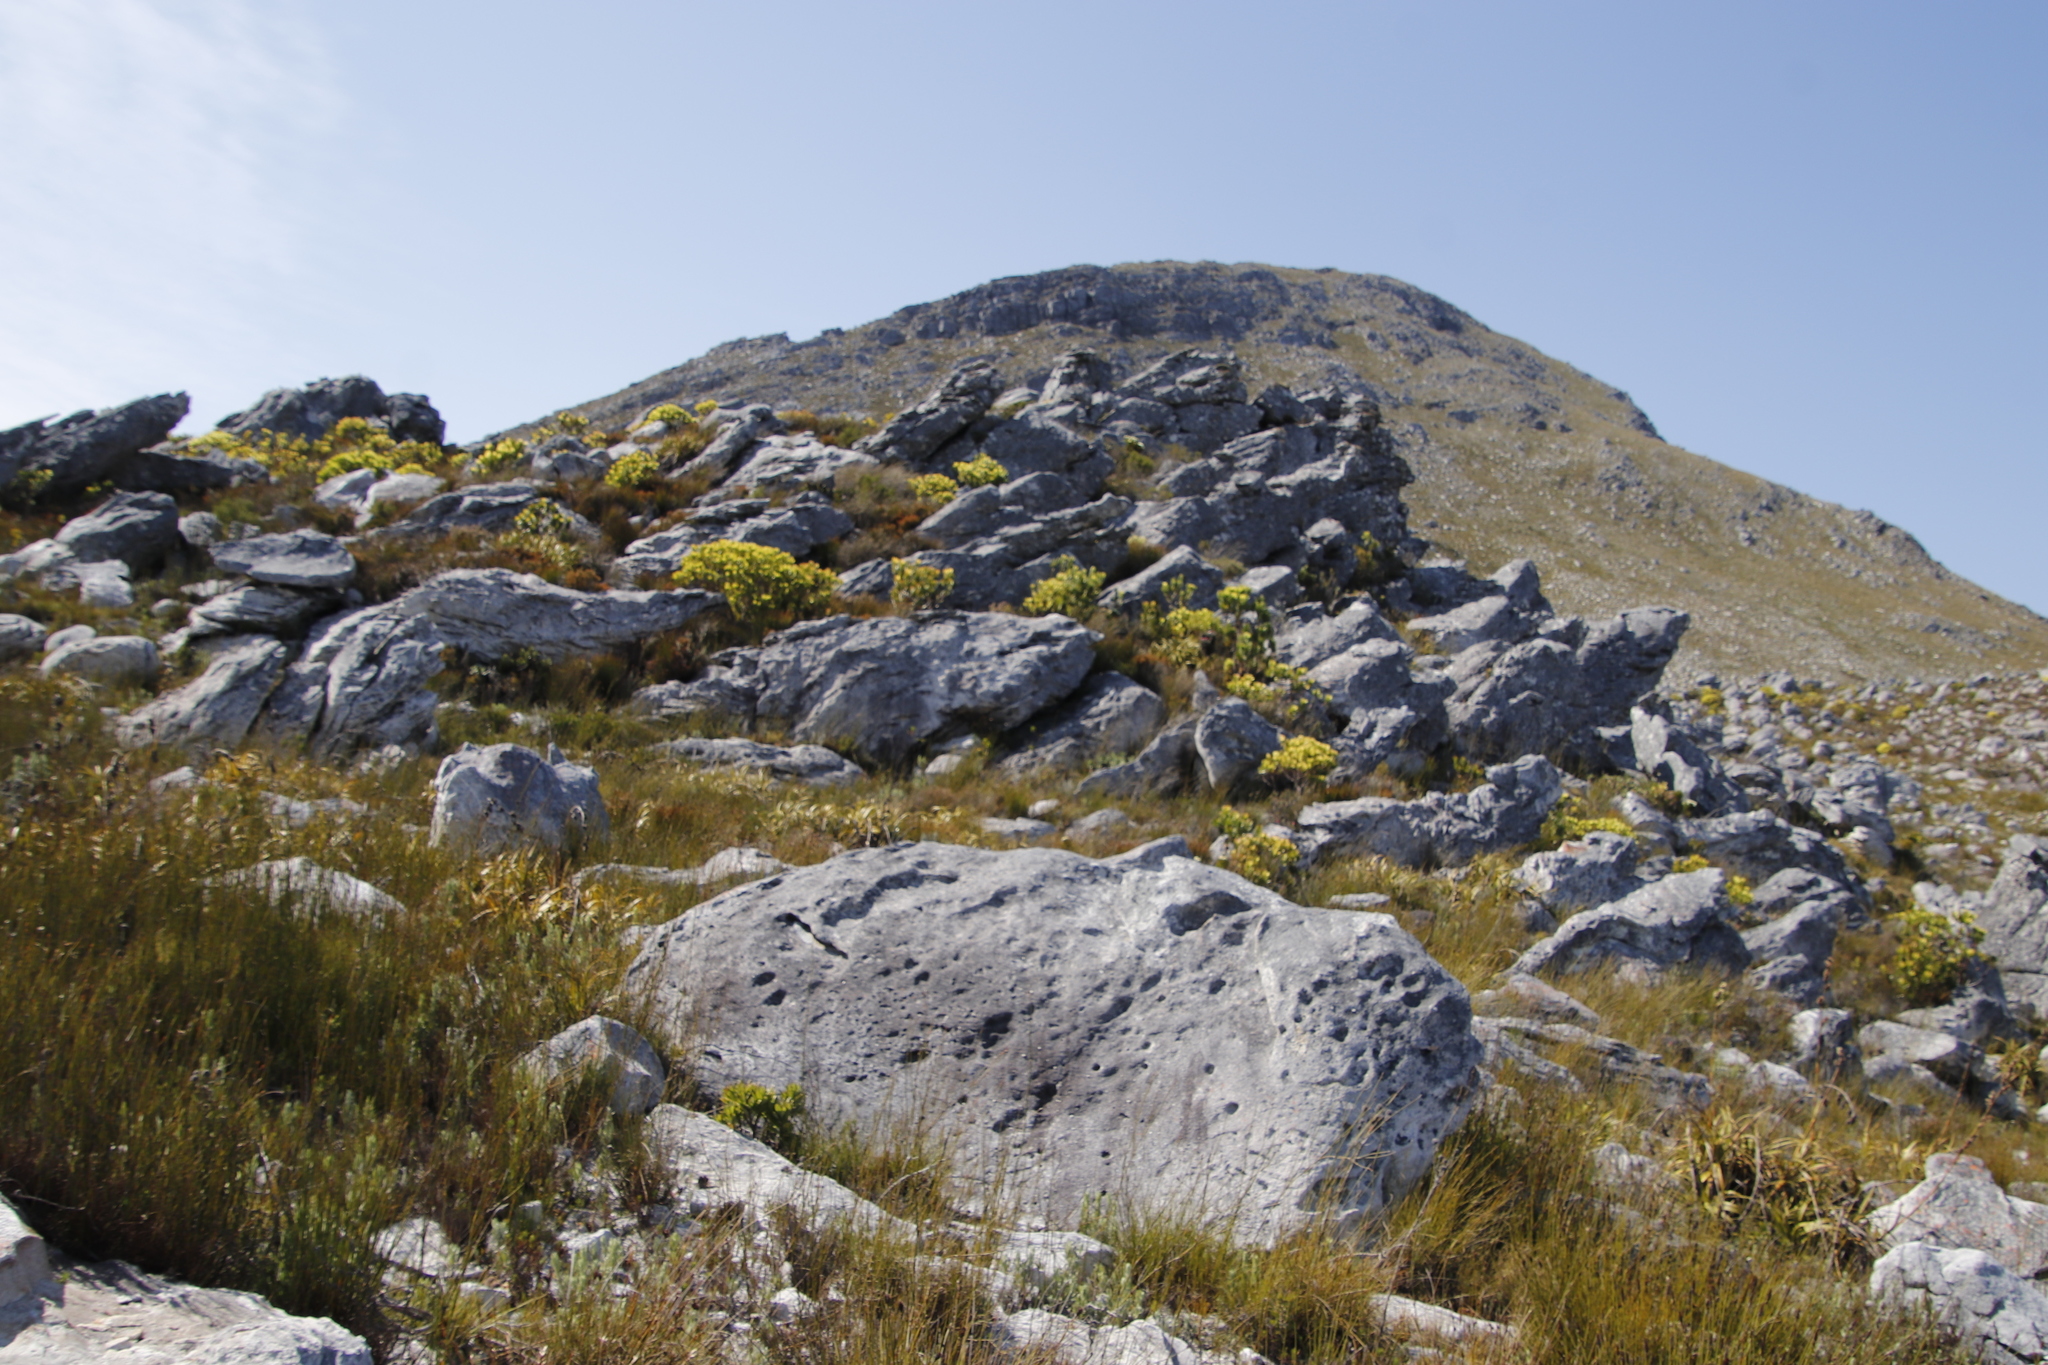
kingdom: Plantae
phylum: Tracheophyta
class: Magnoliopsida
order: Proteales
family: Proteaceae
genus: Leucadendron
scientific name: Leucadendron gandogeri
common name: Broad-leaf conebush
